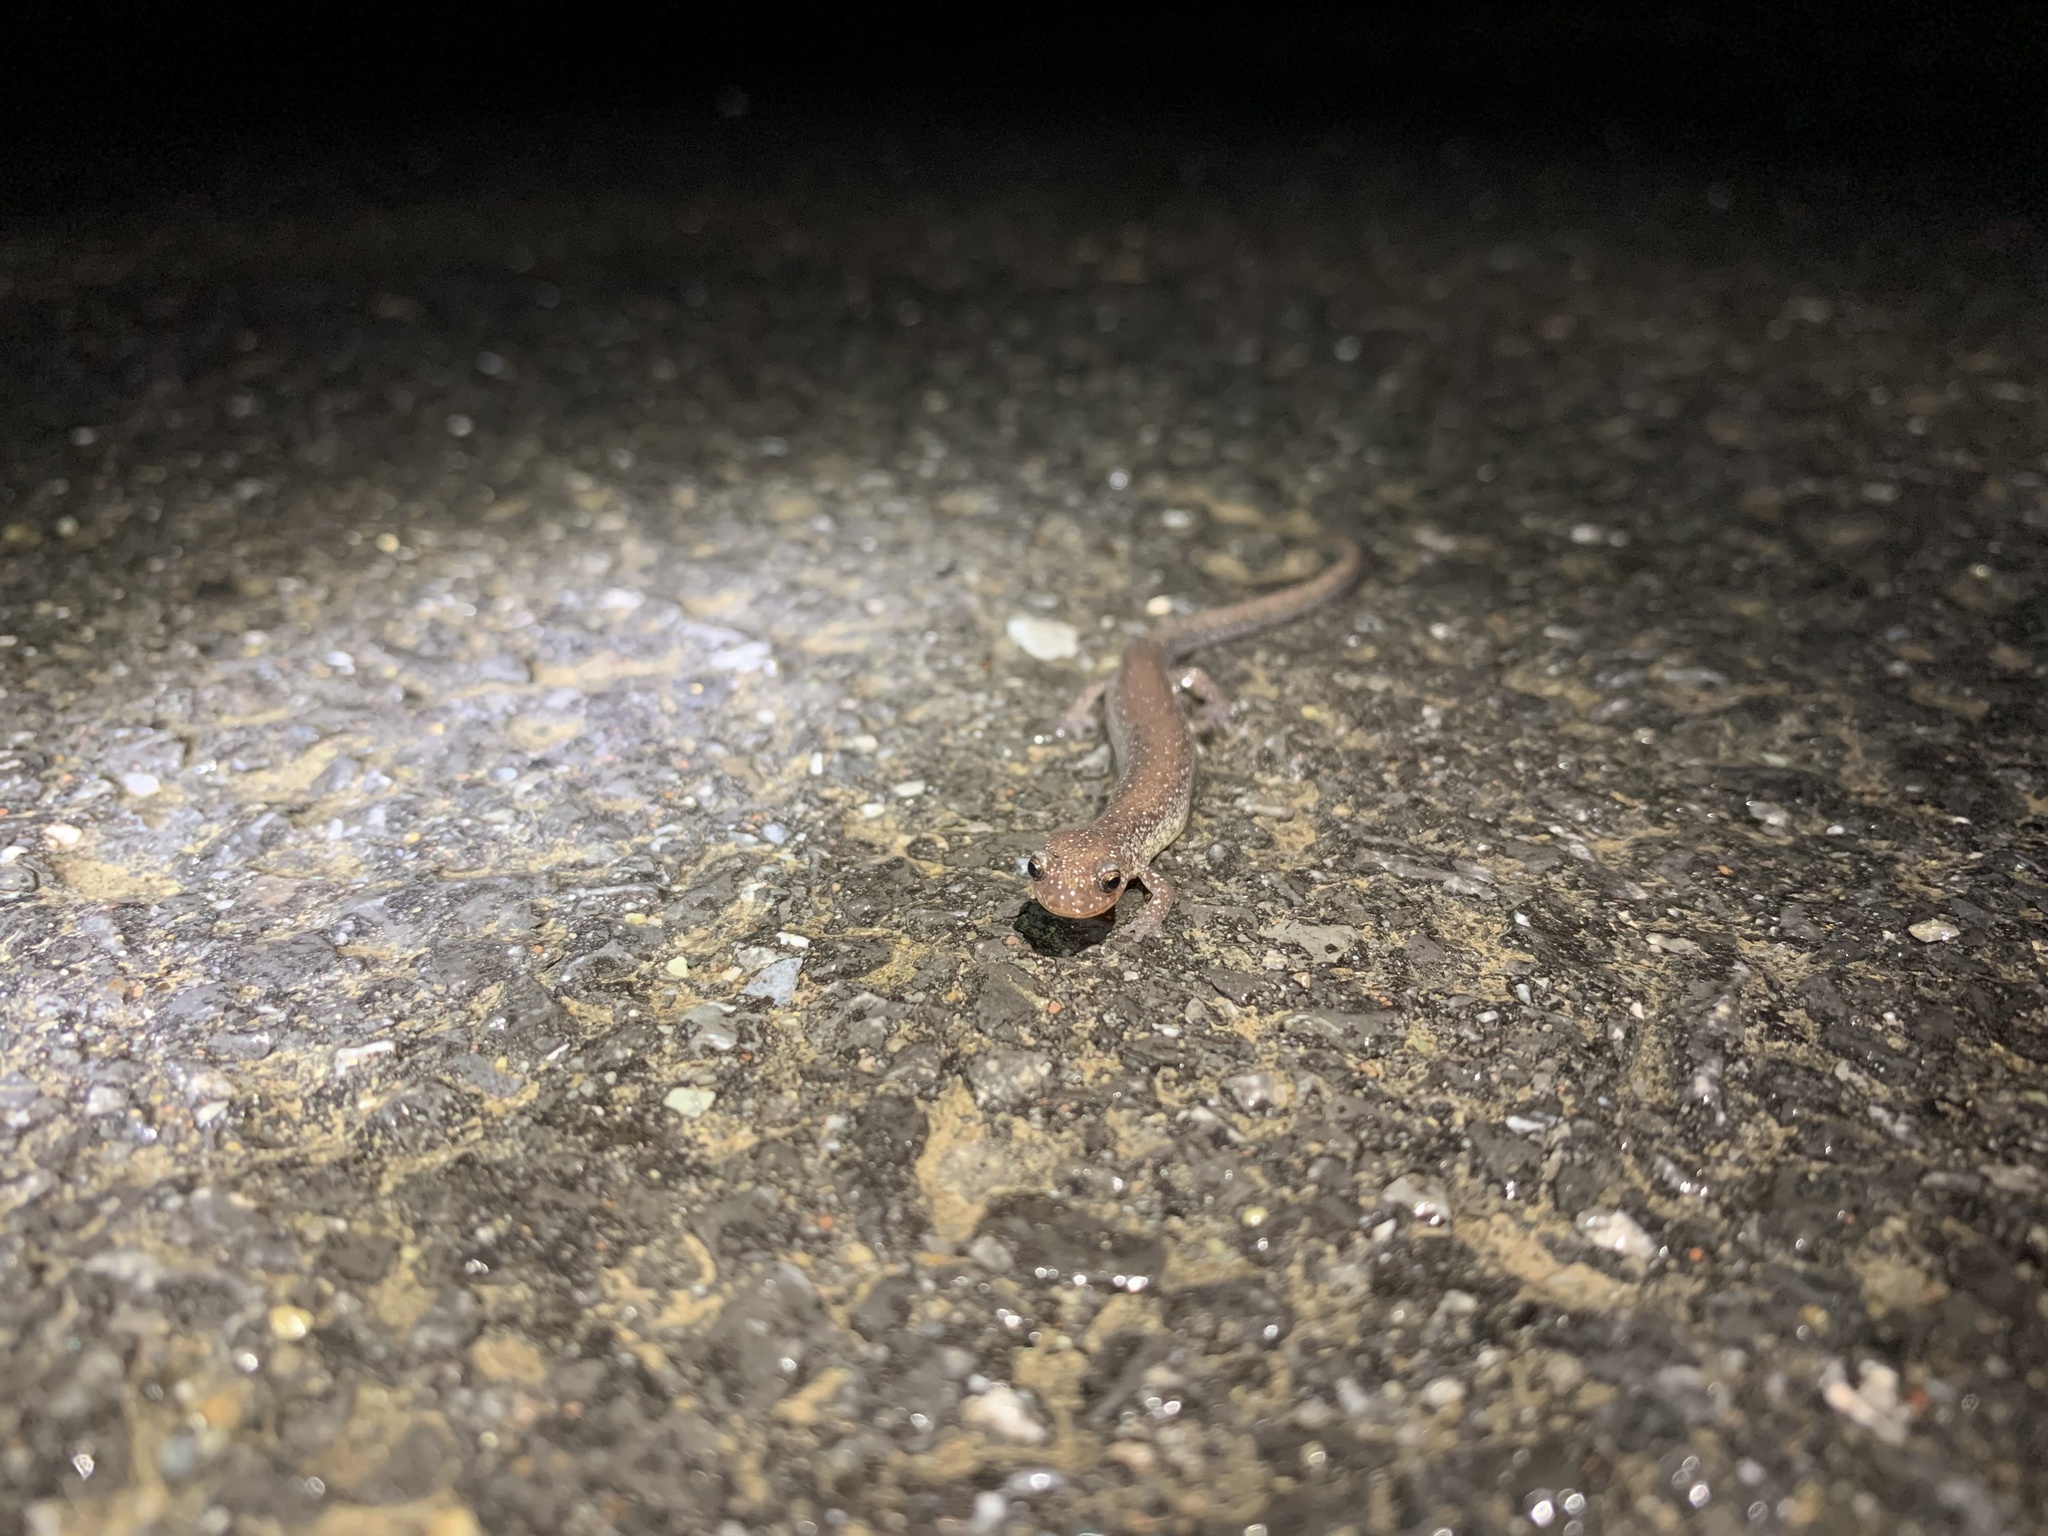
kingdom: Animalia
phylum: Chordata
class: Amphibia
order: Caudata
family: Plethodontidae
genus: Plethodon
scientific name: Plethodon cinereus
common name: Redback salamander
